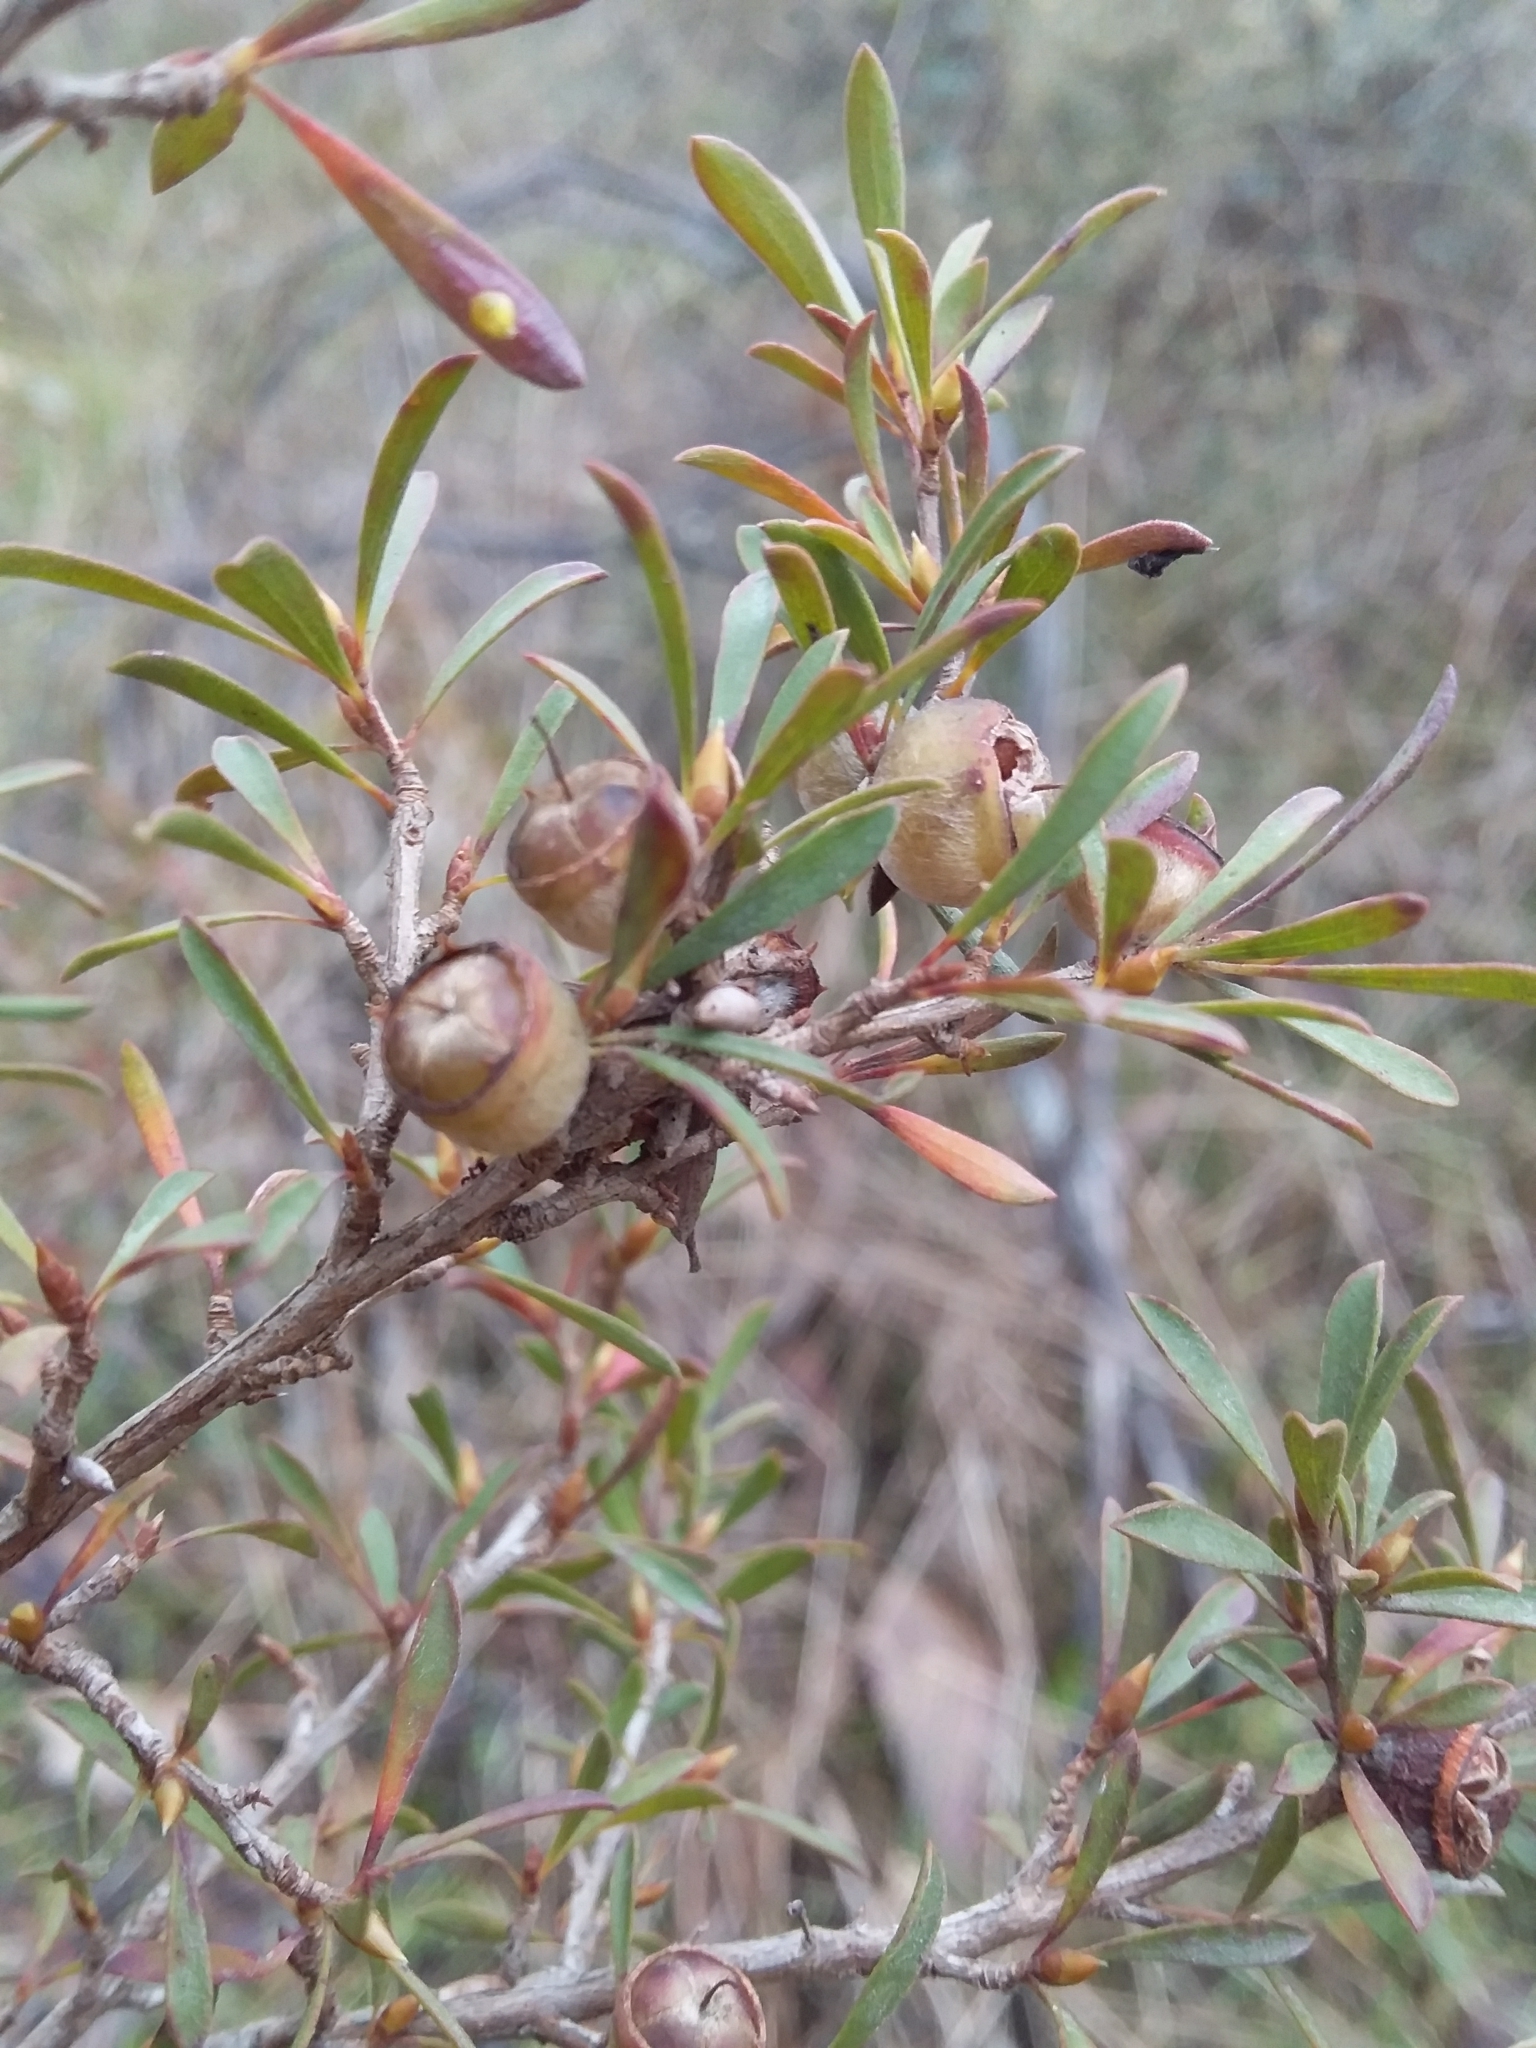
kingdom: Plantae
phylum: Tracheophyta
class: Magnoliopsida
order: Myrtales
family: Myrtaceae
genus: Leptospermum
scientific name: Leptospermum myrsinoides
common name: Heath teatree
